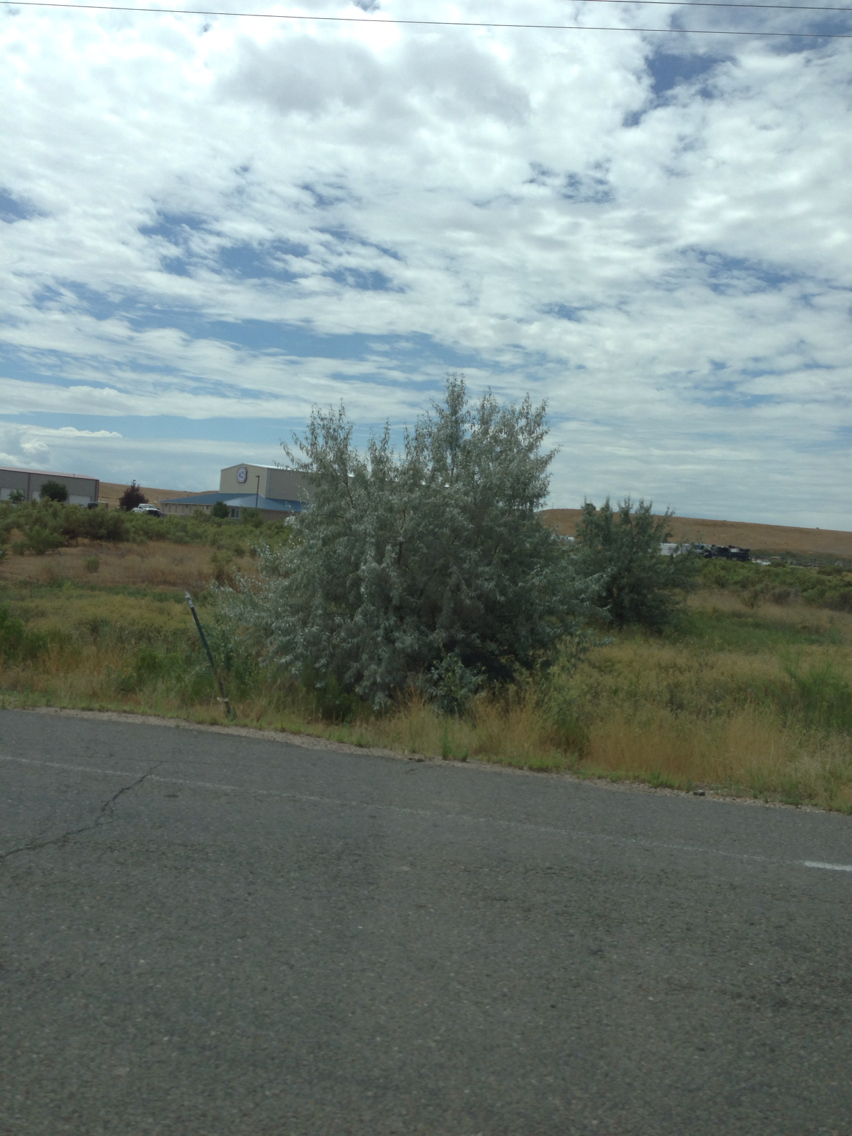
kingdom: Plantae
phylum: Tracheophyta
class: Magnoliopsida
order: Rosales
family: Elaeagnaceae
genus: Elaeagnus
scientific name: Elaeagnus angustifolia
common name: Russian olive
